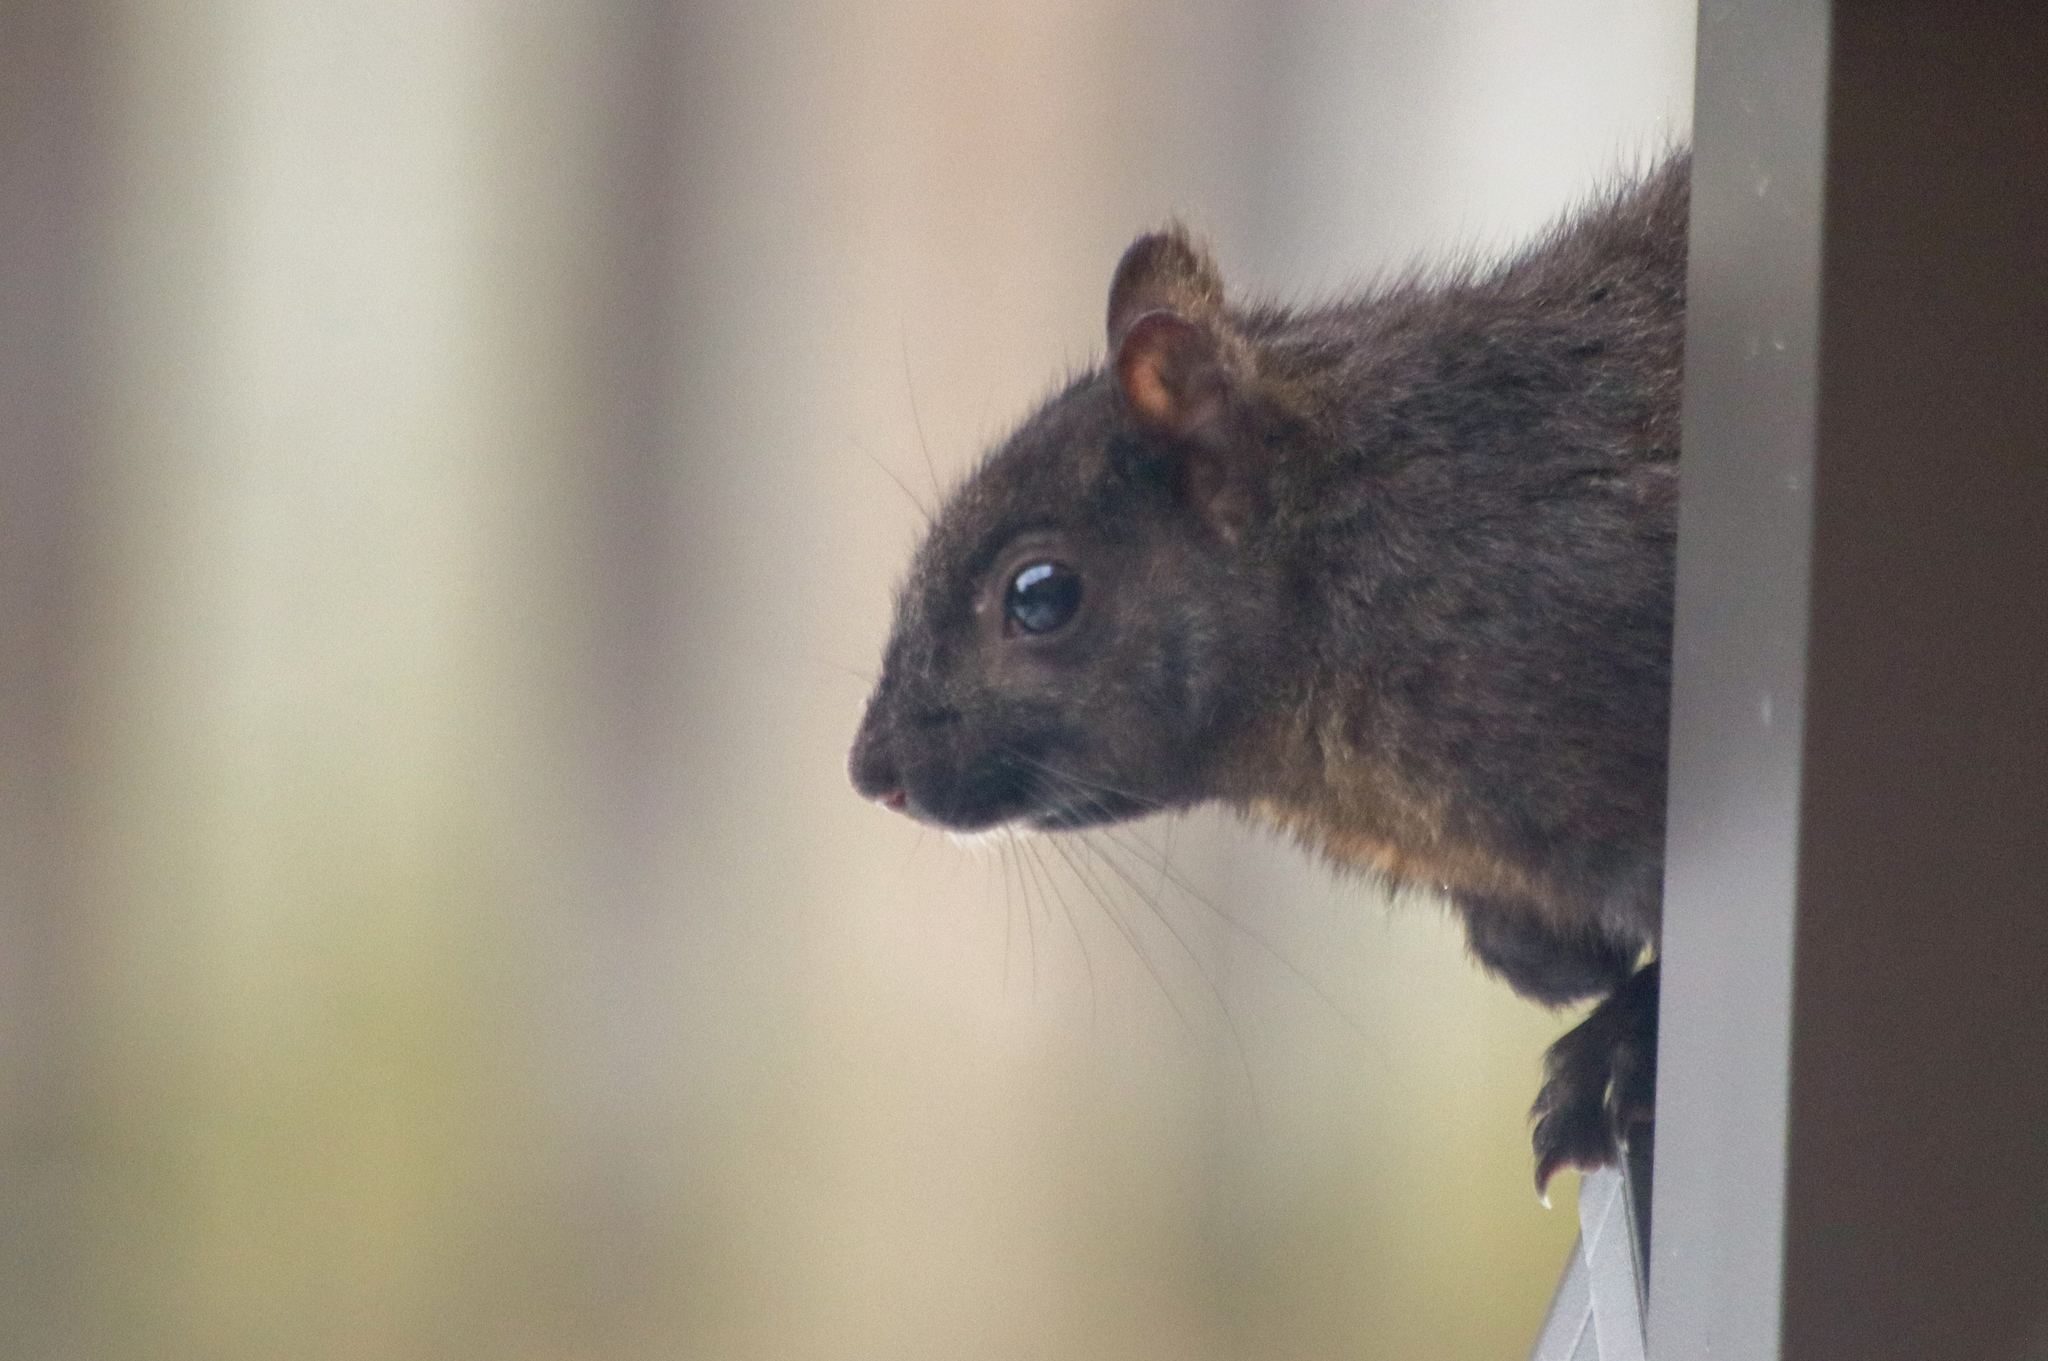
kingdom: Animalia
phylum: Chordata
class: Mammalia
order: Rodentia
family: Sciuridae
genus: Sciurus
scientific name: Sciurus carolinensis
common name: Eastern gray squirrel
